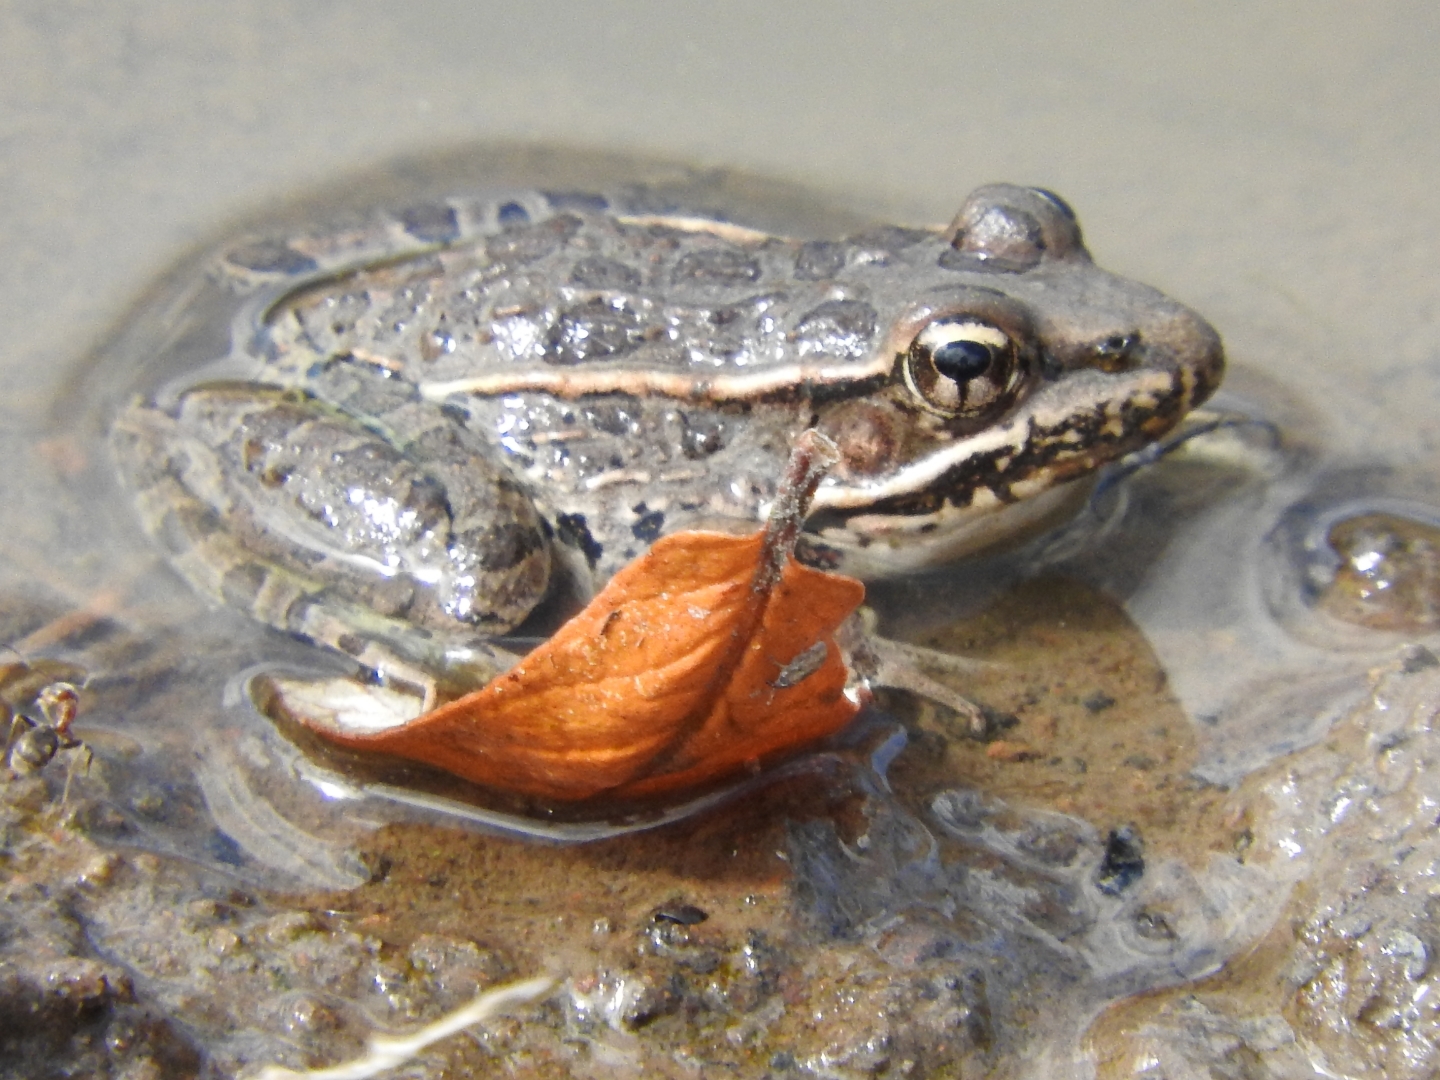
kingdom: Animalia
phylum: Chordata
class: Amphibia
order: Anura
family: Ranidae
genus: Lithobates
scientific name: Lithobates neovolcanicus
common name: Transverse volcanic leopard frog
